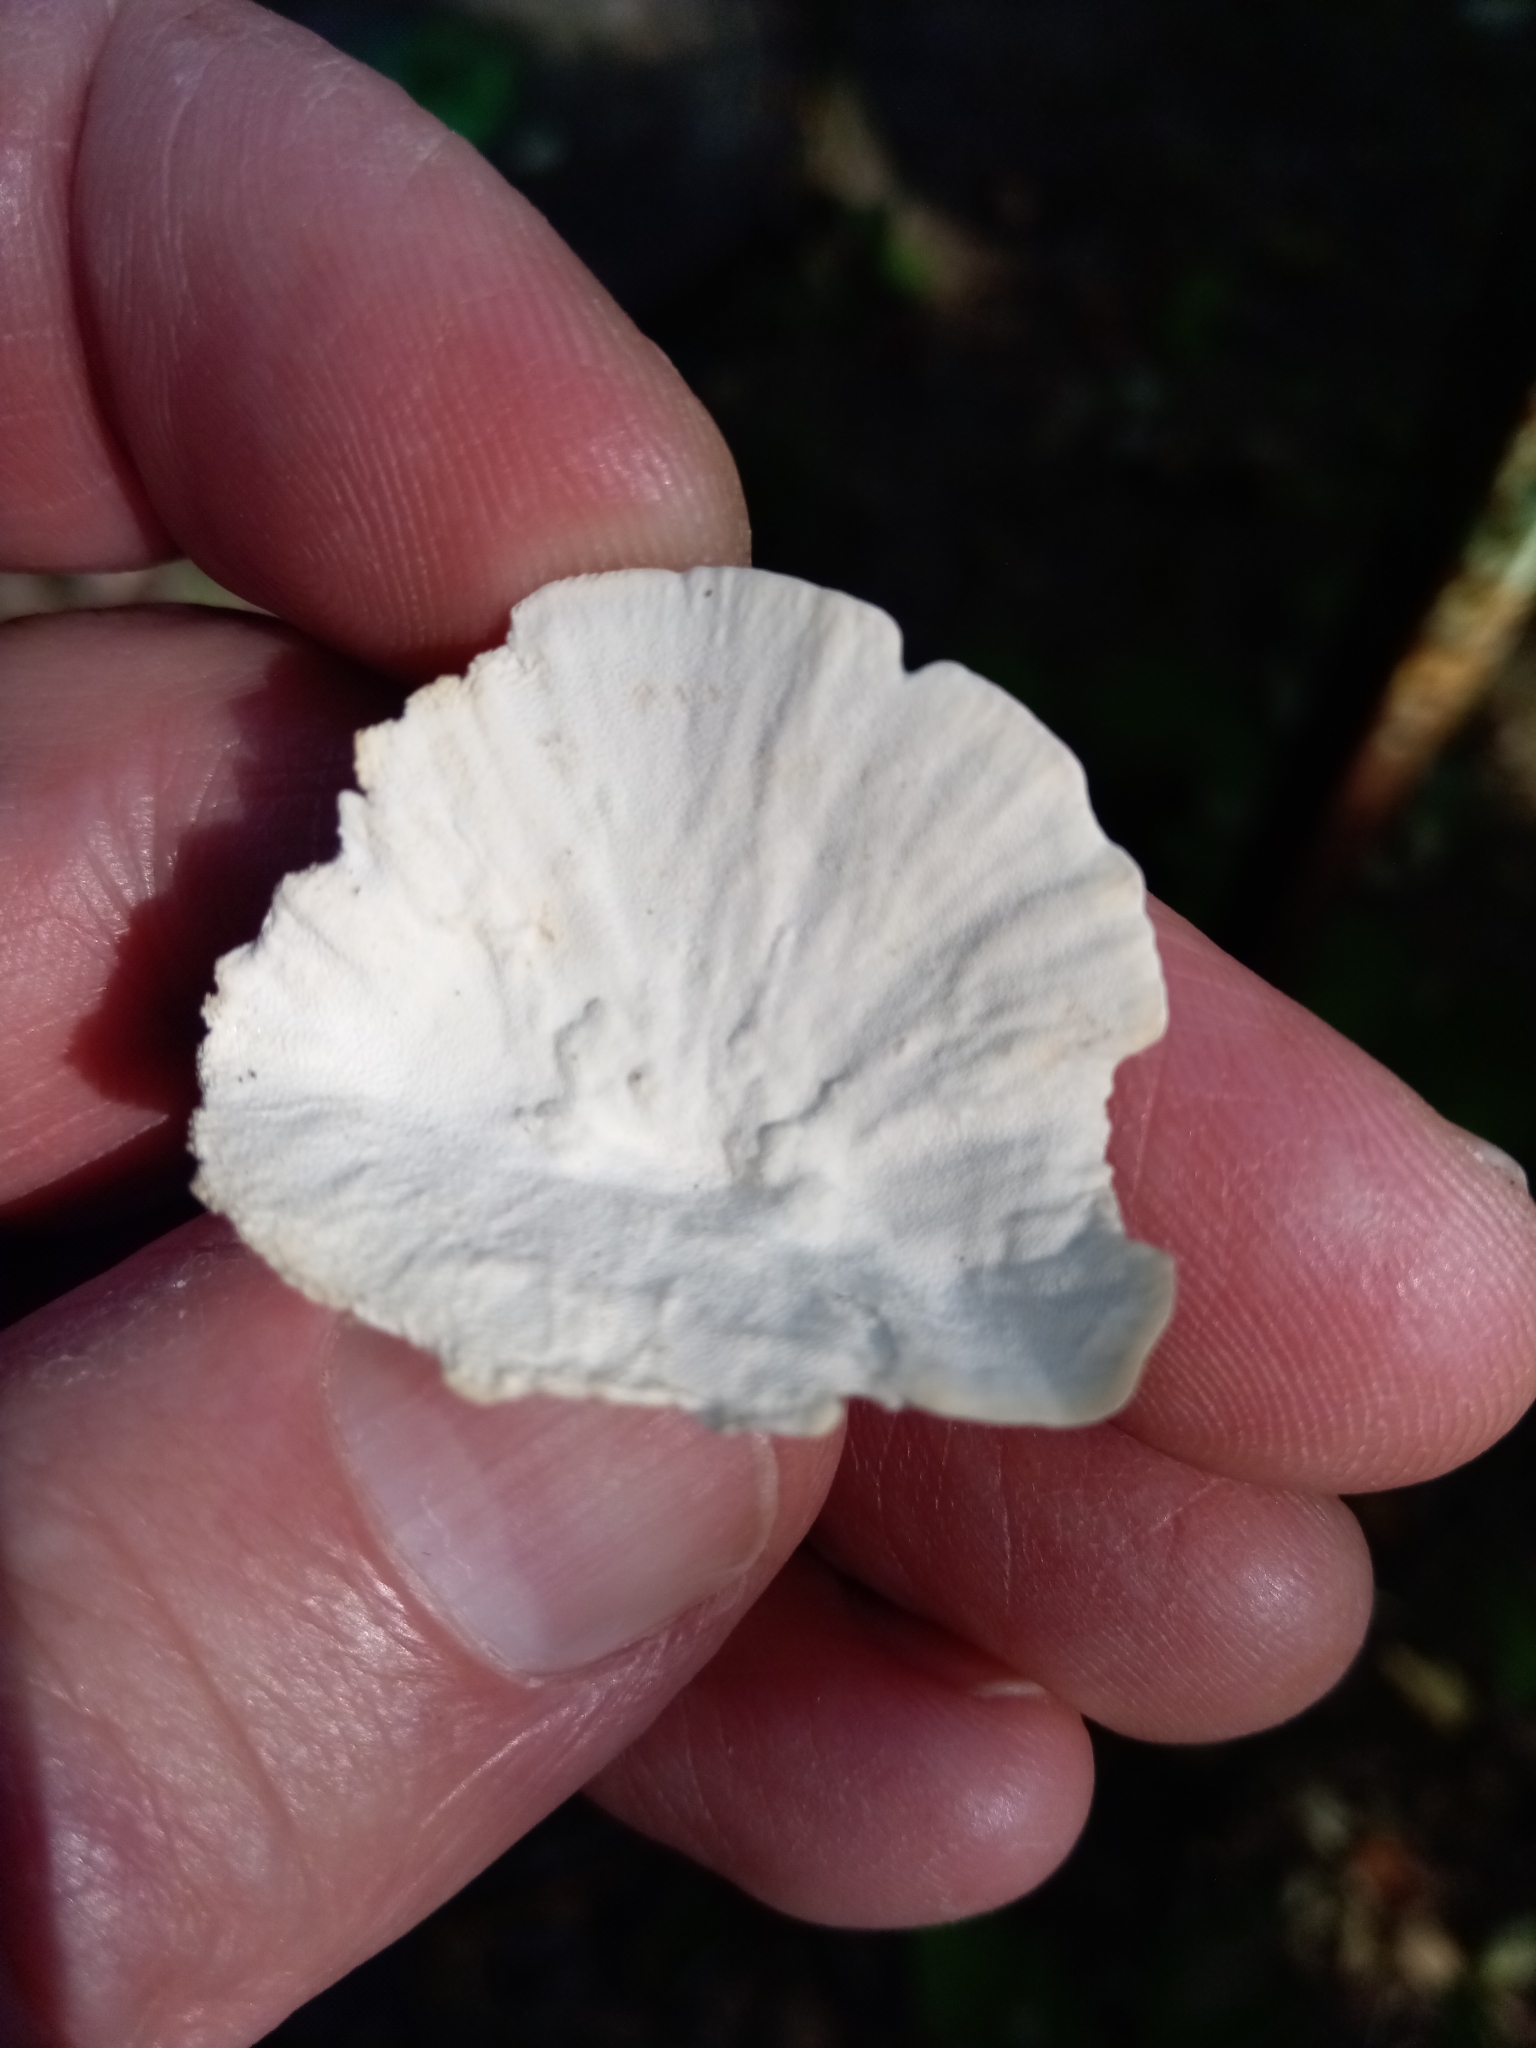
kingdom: Fungi
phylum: Basidiomycota
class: Agaricomycetes
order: Polyporales
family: Polyporaceae
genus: Trametes
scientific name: Trametes versicolor
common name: Turkeytail
